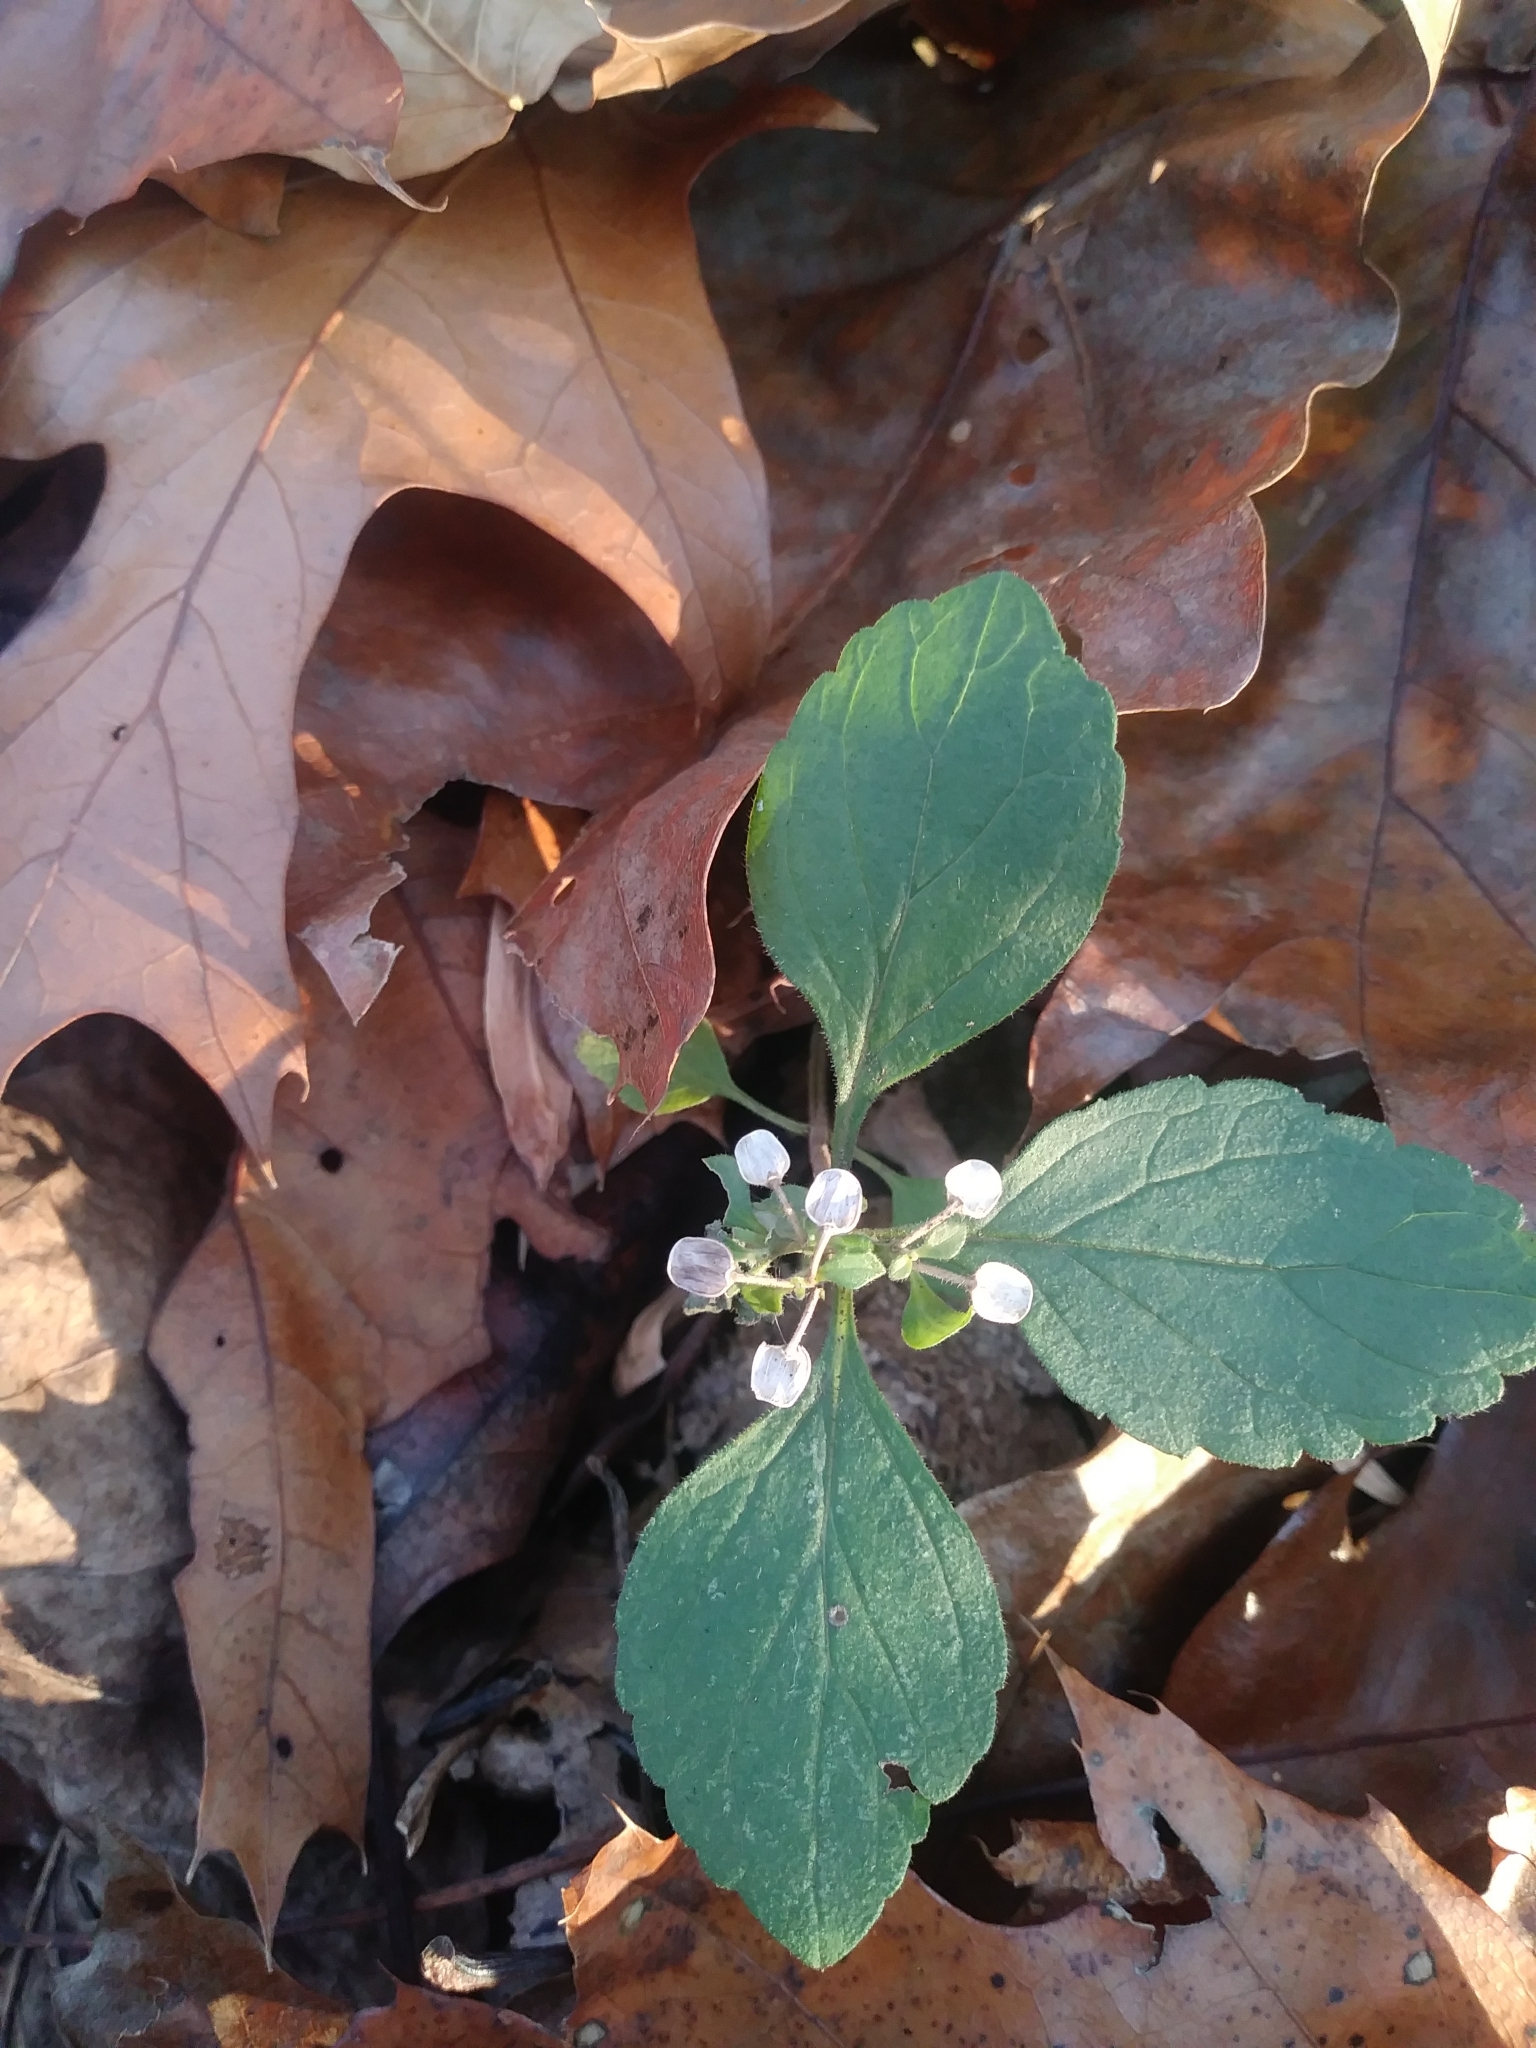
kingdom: Plantae
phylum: Tracheophyta
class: Magnoliopsida
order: Lamiales
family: Lamiaceae
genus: Scutellaria
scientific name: Scutellaria elliptica
